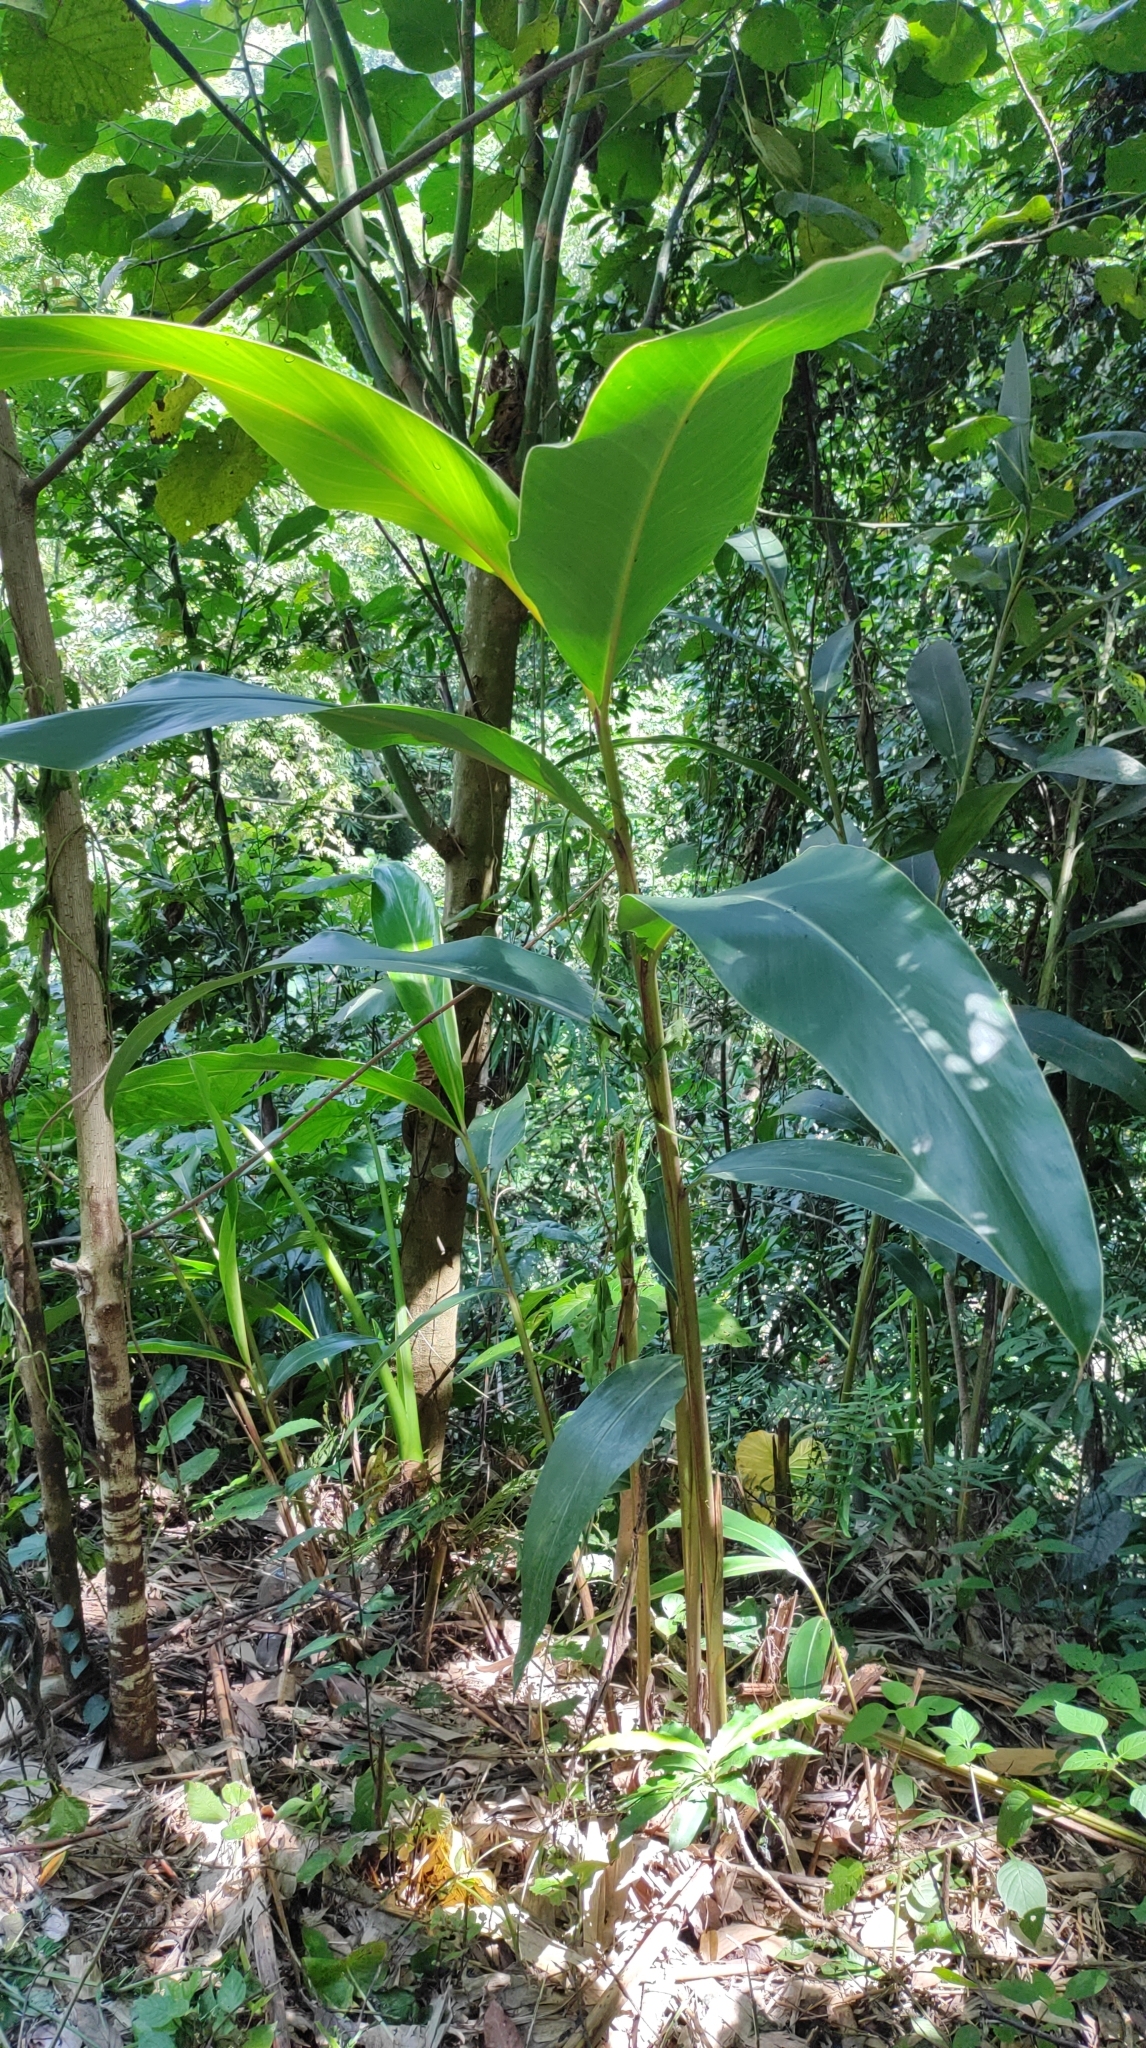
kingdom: Plantae
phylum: Tracheophyta
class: Liliopsida
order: Zingiberales
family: Zingiberaceae
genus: Alpinia
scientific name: Alpinia zerumbet
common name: Shellplant
